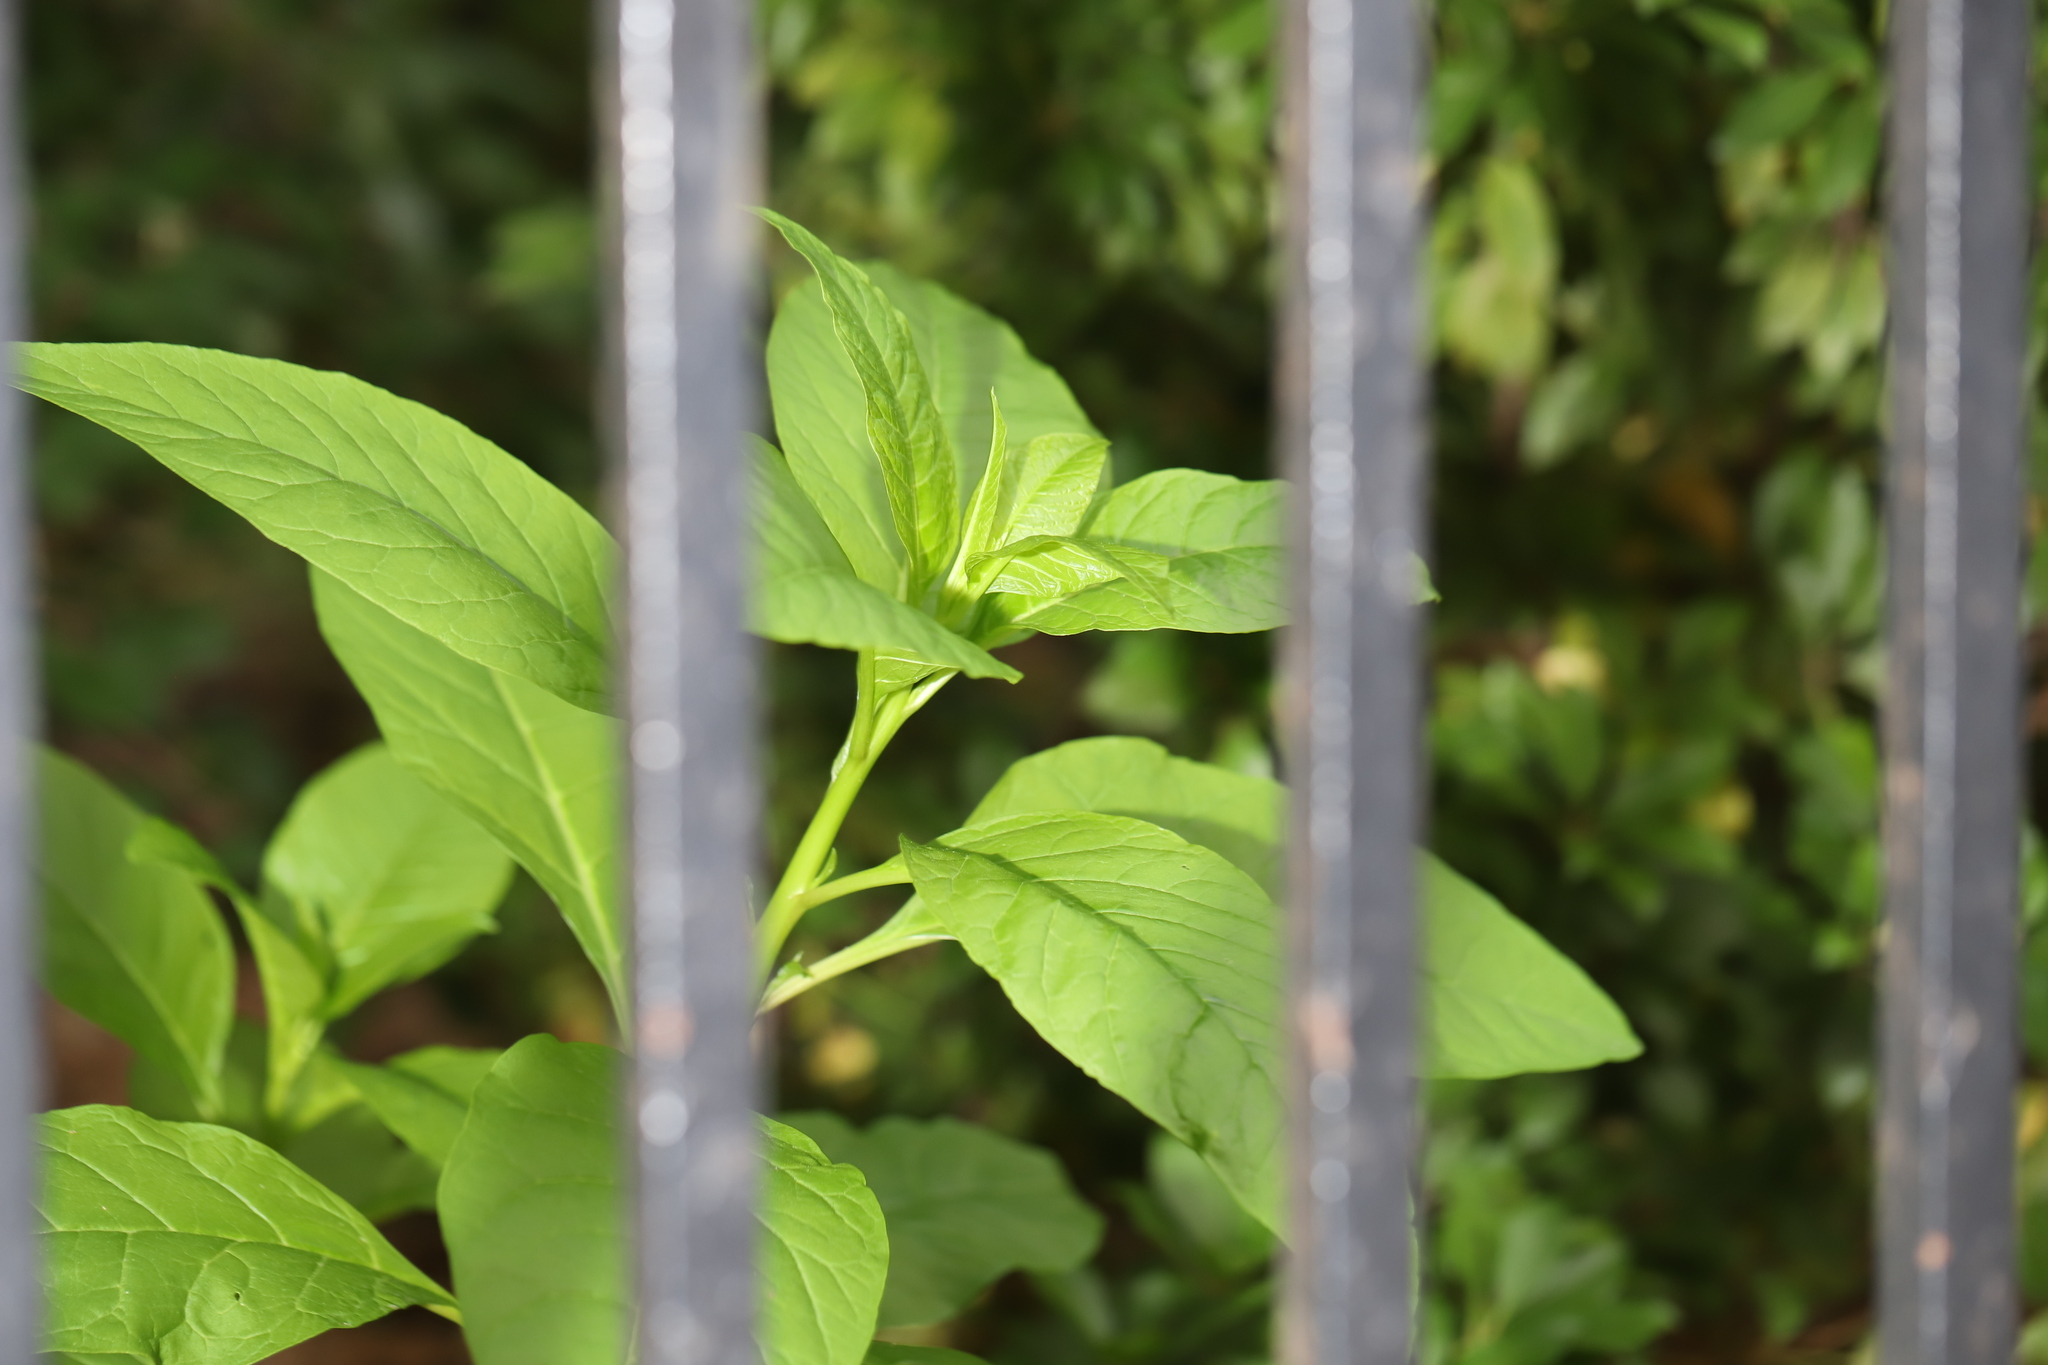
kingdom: Plantae
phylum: Tracheophyta
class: Magnoliopsida
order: Caryophyllales
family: Phytolaccaceae
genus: Phytolacca
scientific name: Phytolacca americana
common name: American pokeweed
